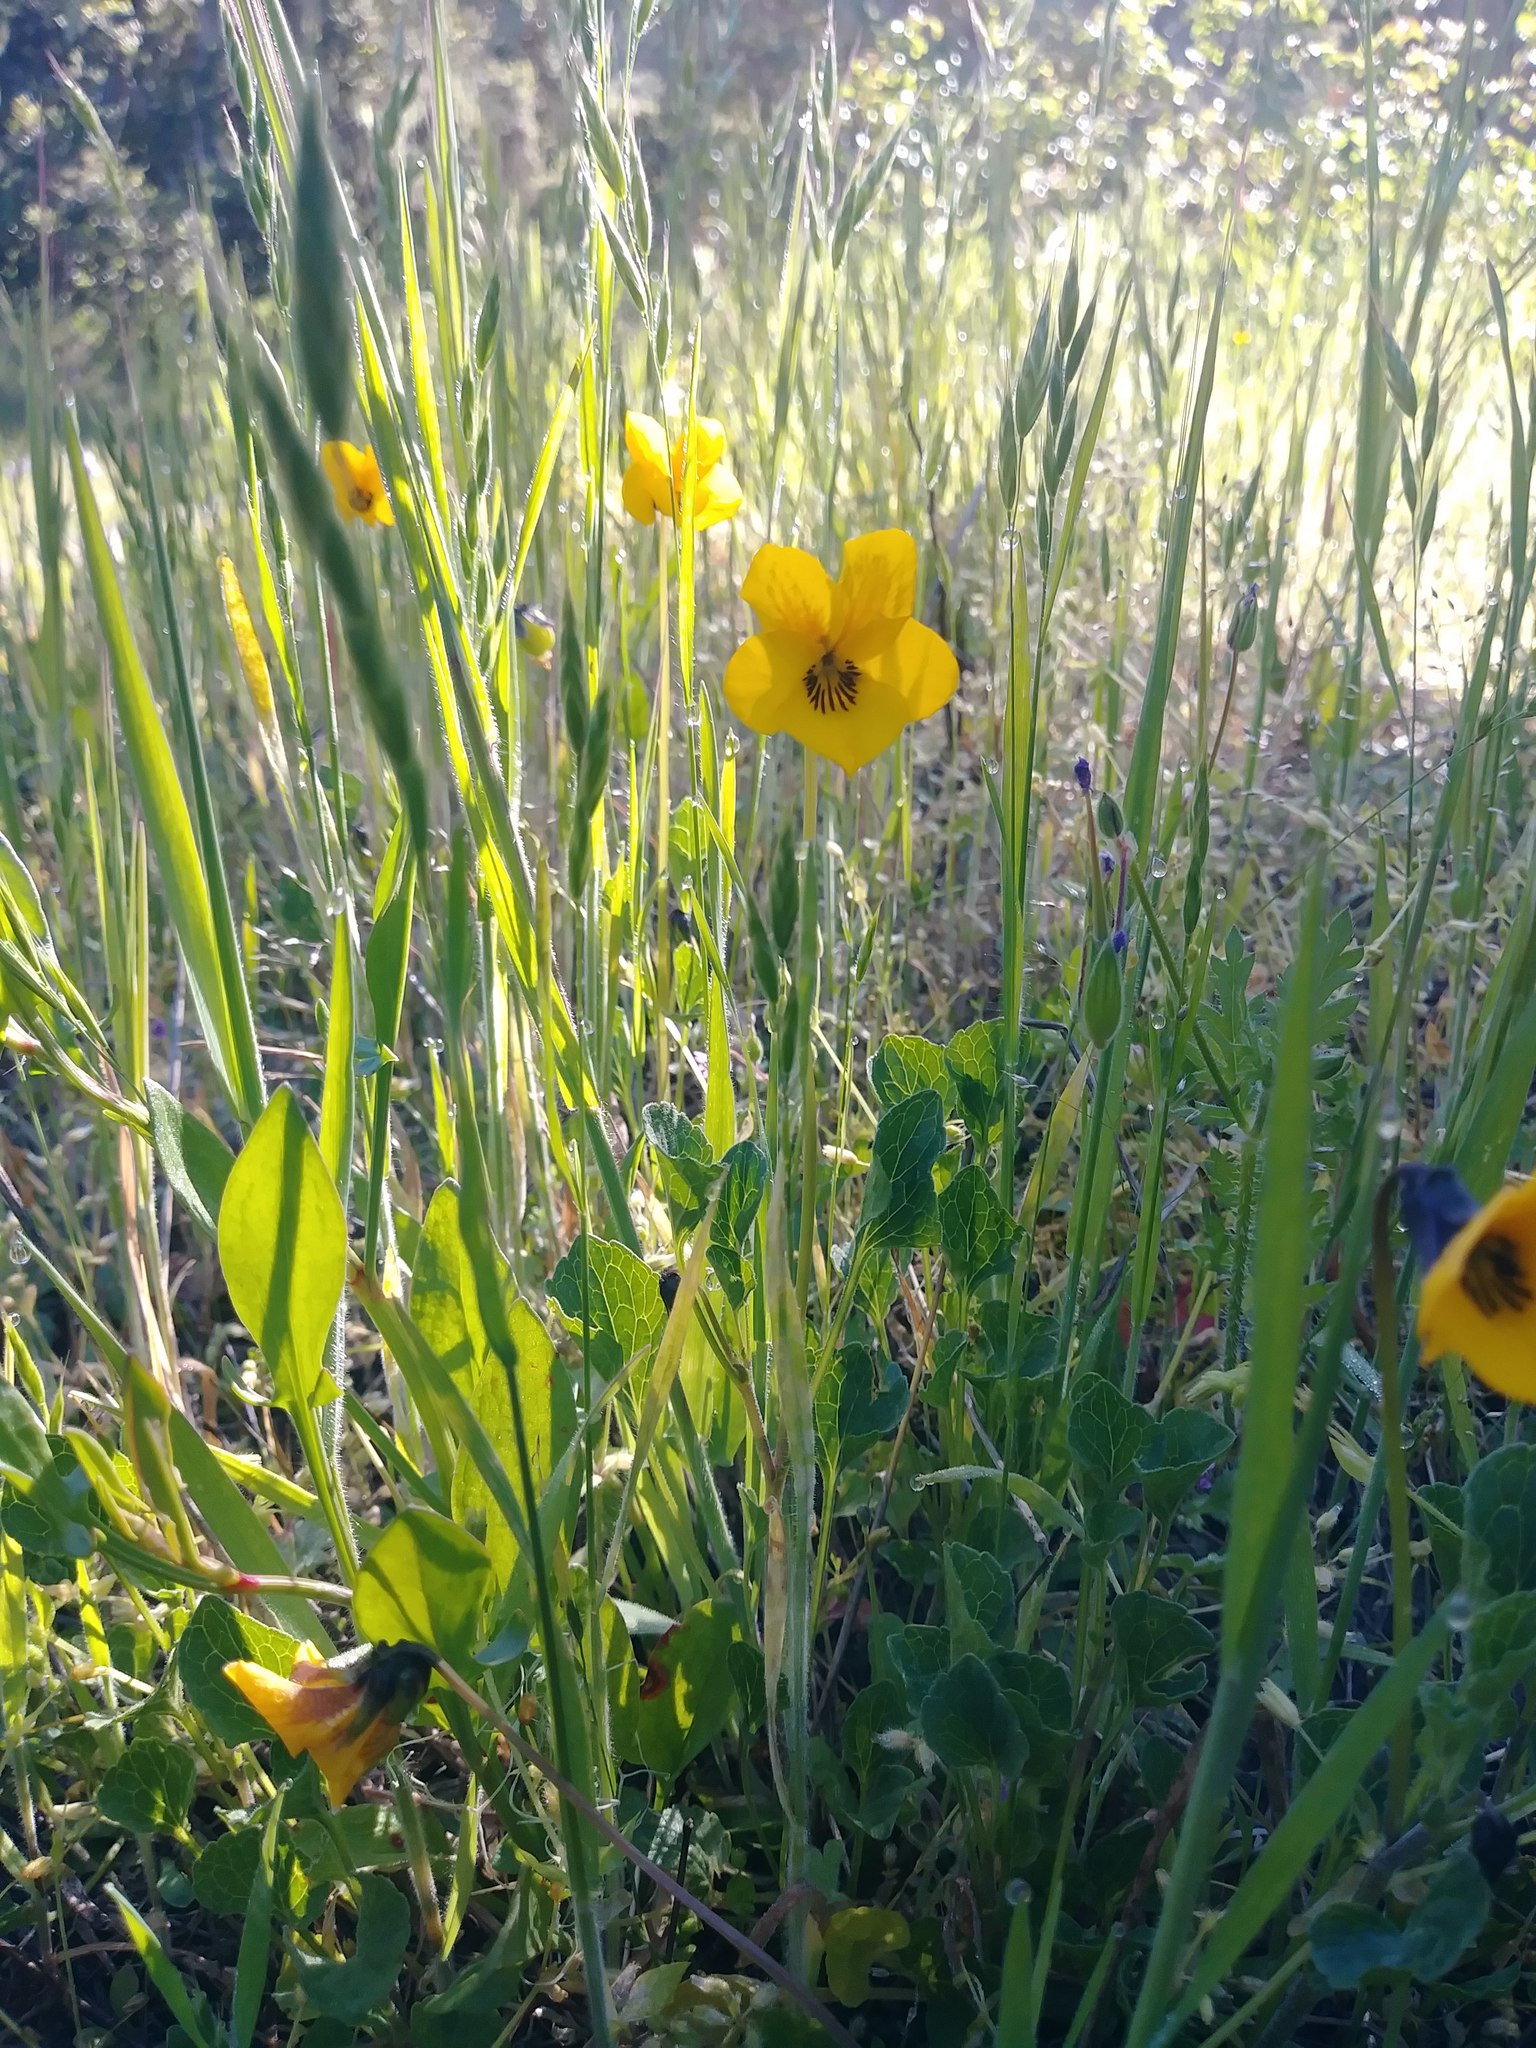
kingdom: Plantae
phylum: Tracheophyta
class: Magnoliopsida
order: Malpighiales
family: Violaceae
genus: Viola
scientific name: Viola pedunculata
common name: California golden violet
